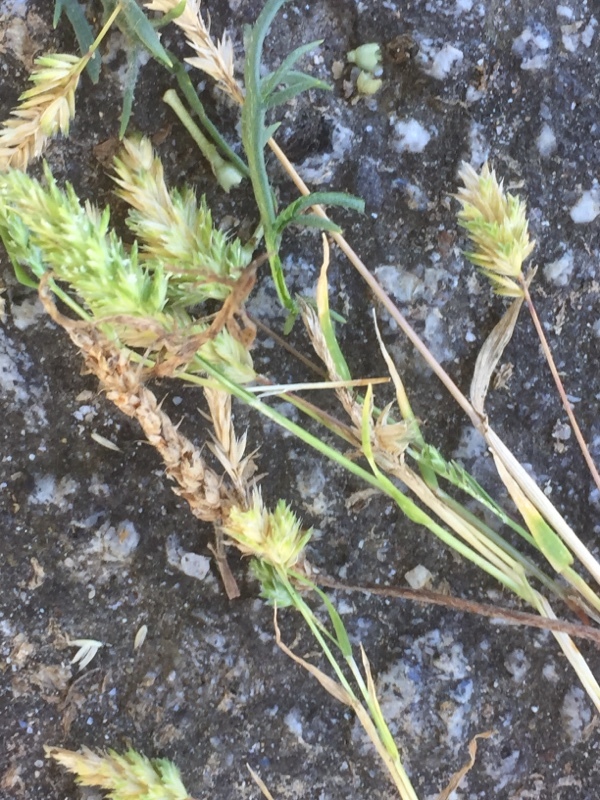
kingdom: Plantae
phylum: Tracheophyta
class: Liliopsida
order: Poales
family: Poaceae
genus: Phleum
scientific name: Phleum arenarium
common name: Sand cat's-tail
